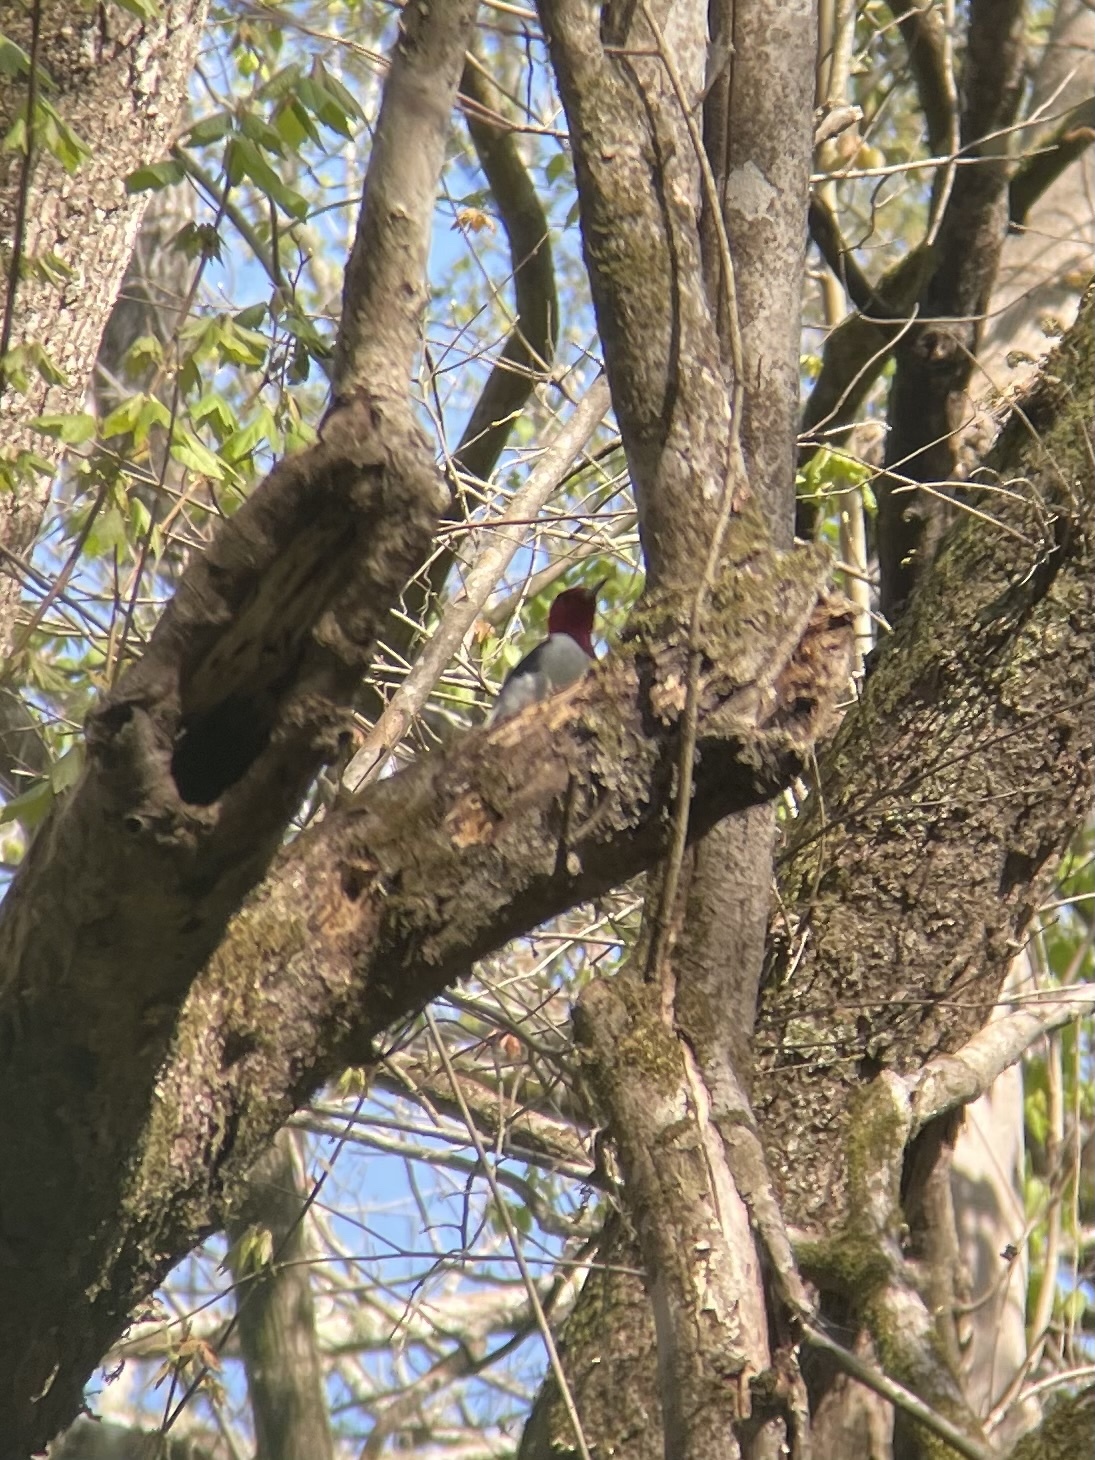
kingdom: Animalia
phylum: Chordata
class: Aves
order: Piciformes
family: Picidae
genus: Melanerpes
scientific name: Melanerpes erythrocephalus
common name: Red-headed woodpecker
